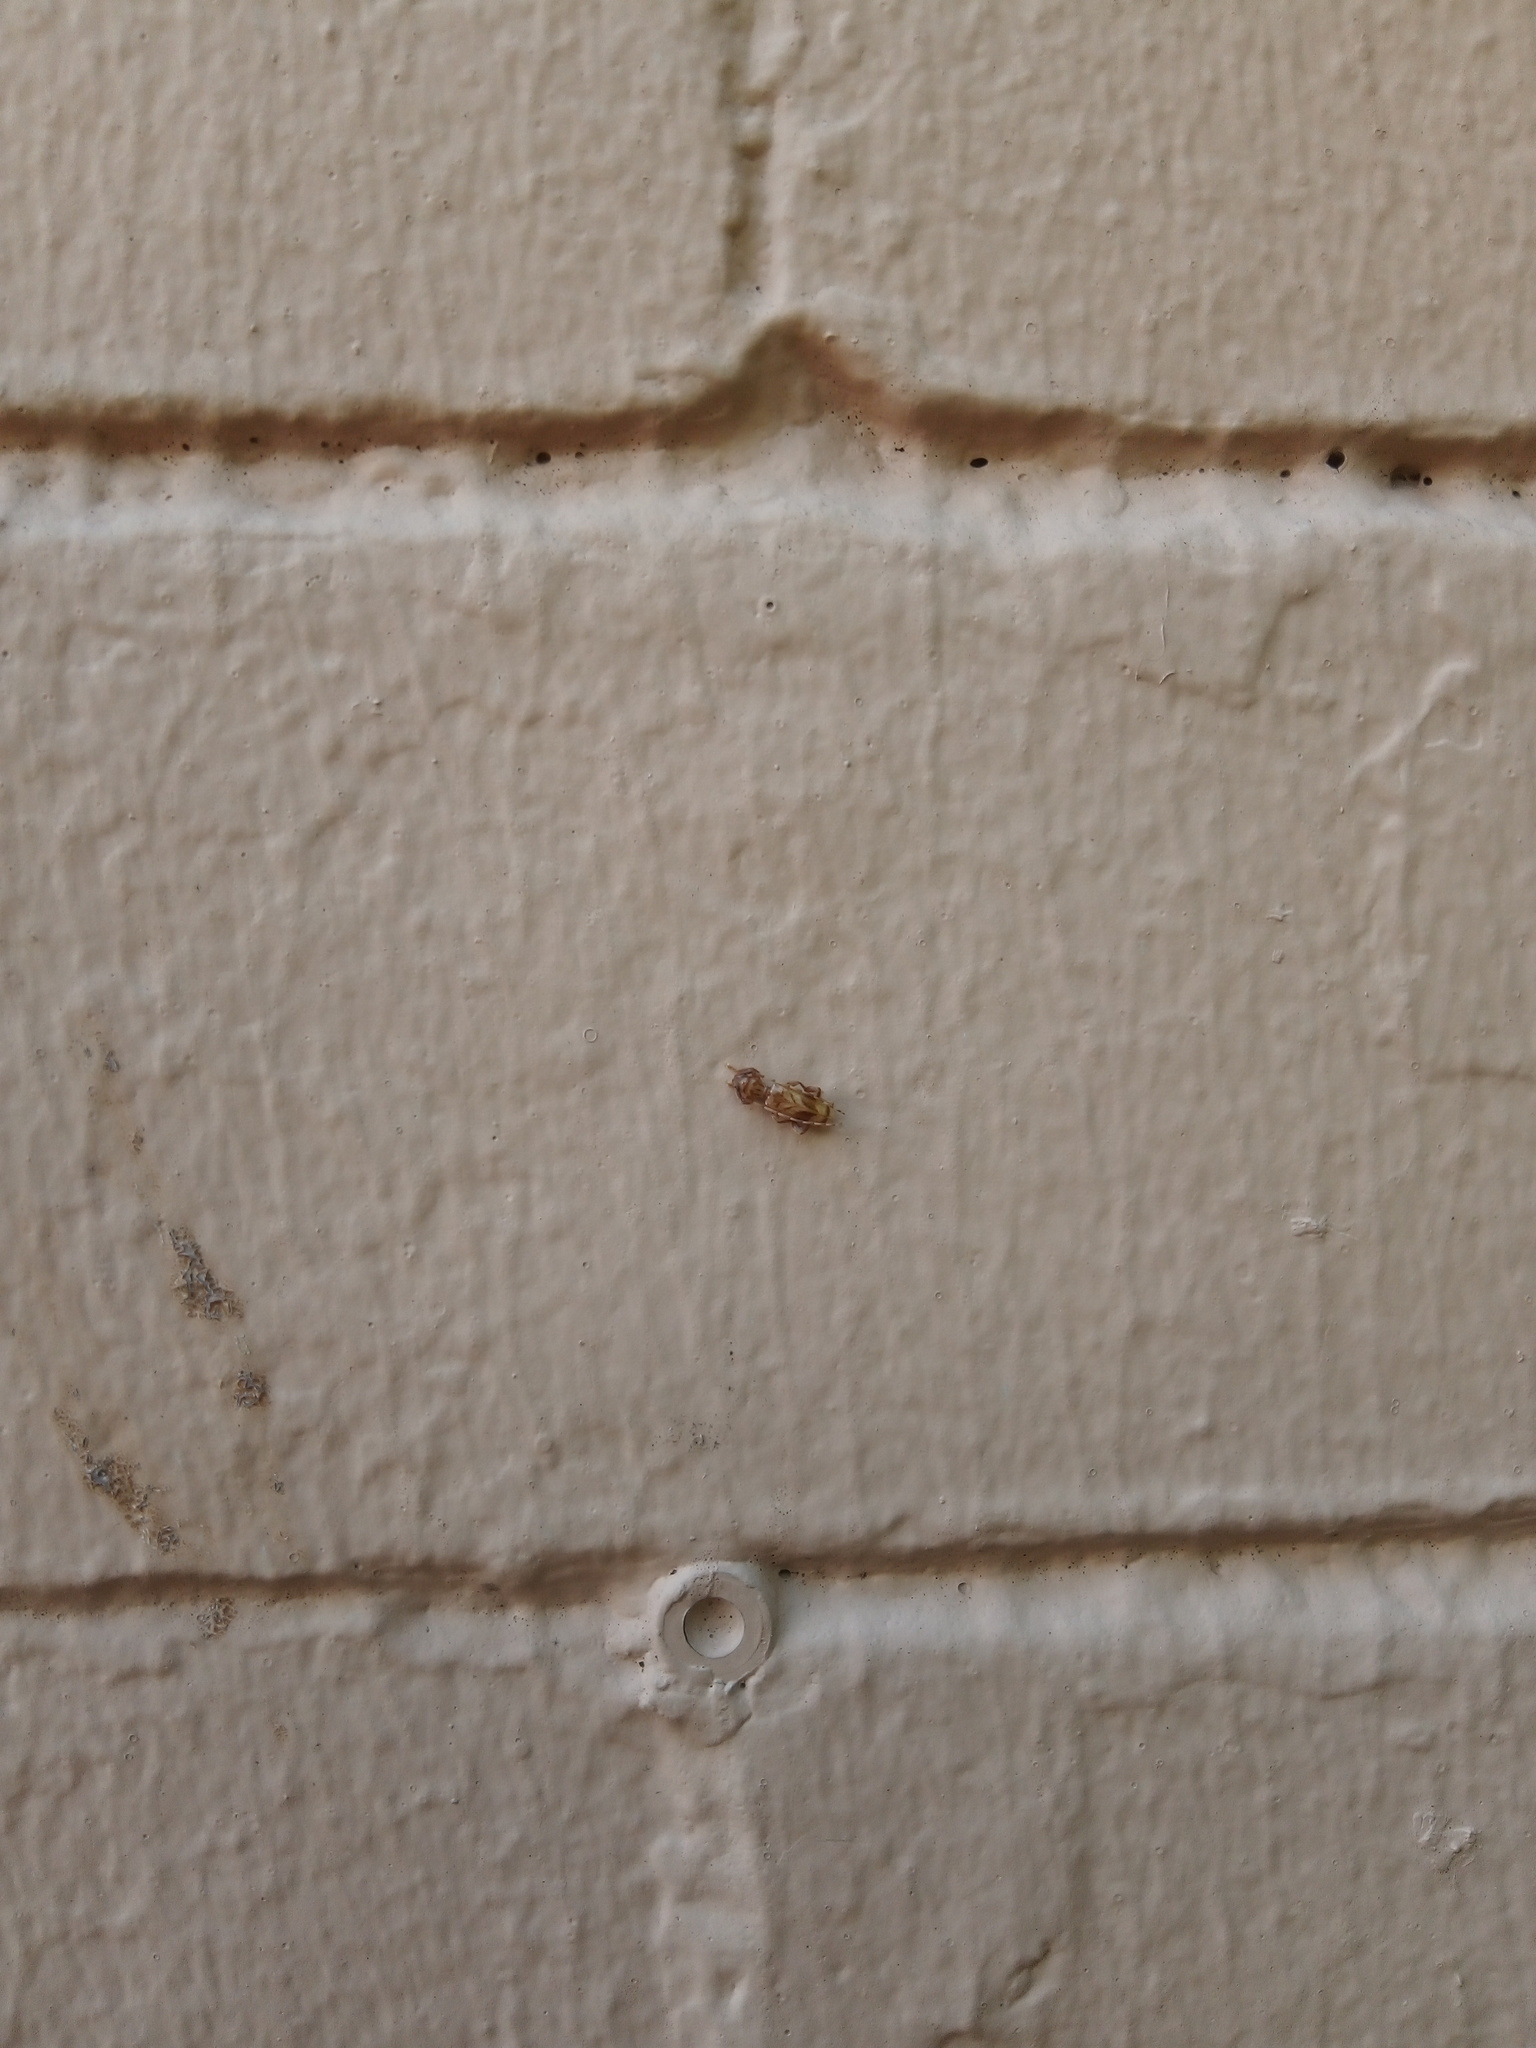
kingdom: Animalia
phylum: Arthropoda
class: Insecta
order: Coleoptera
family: Cerambycidae
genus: Obrium
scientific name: Obrium maculatum
